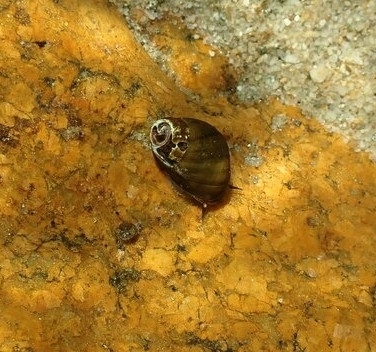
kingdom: Animalia
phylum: Mollusca
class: Gastropoda
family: Pleuroceridae
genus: Leptoxis
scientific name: Leptoxis carinata
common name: Crested mudalia
